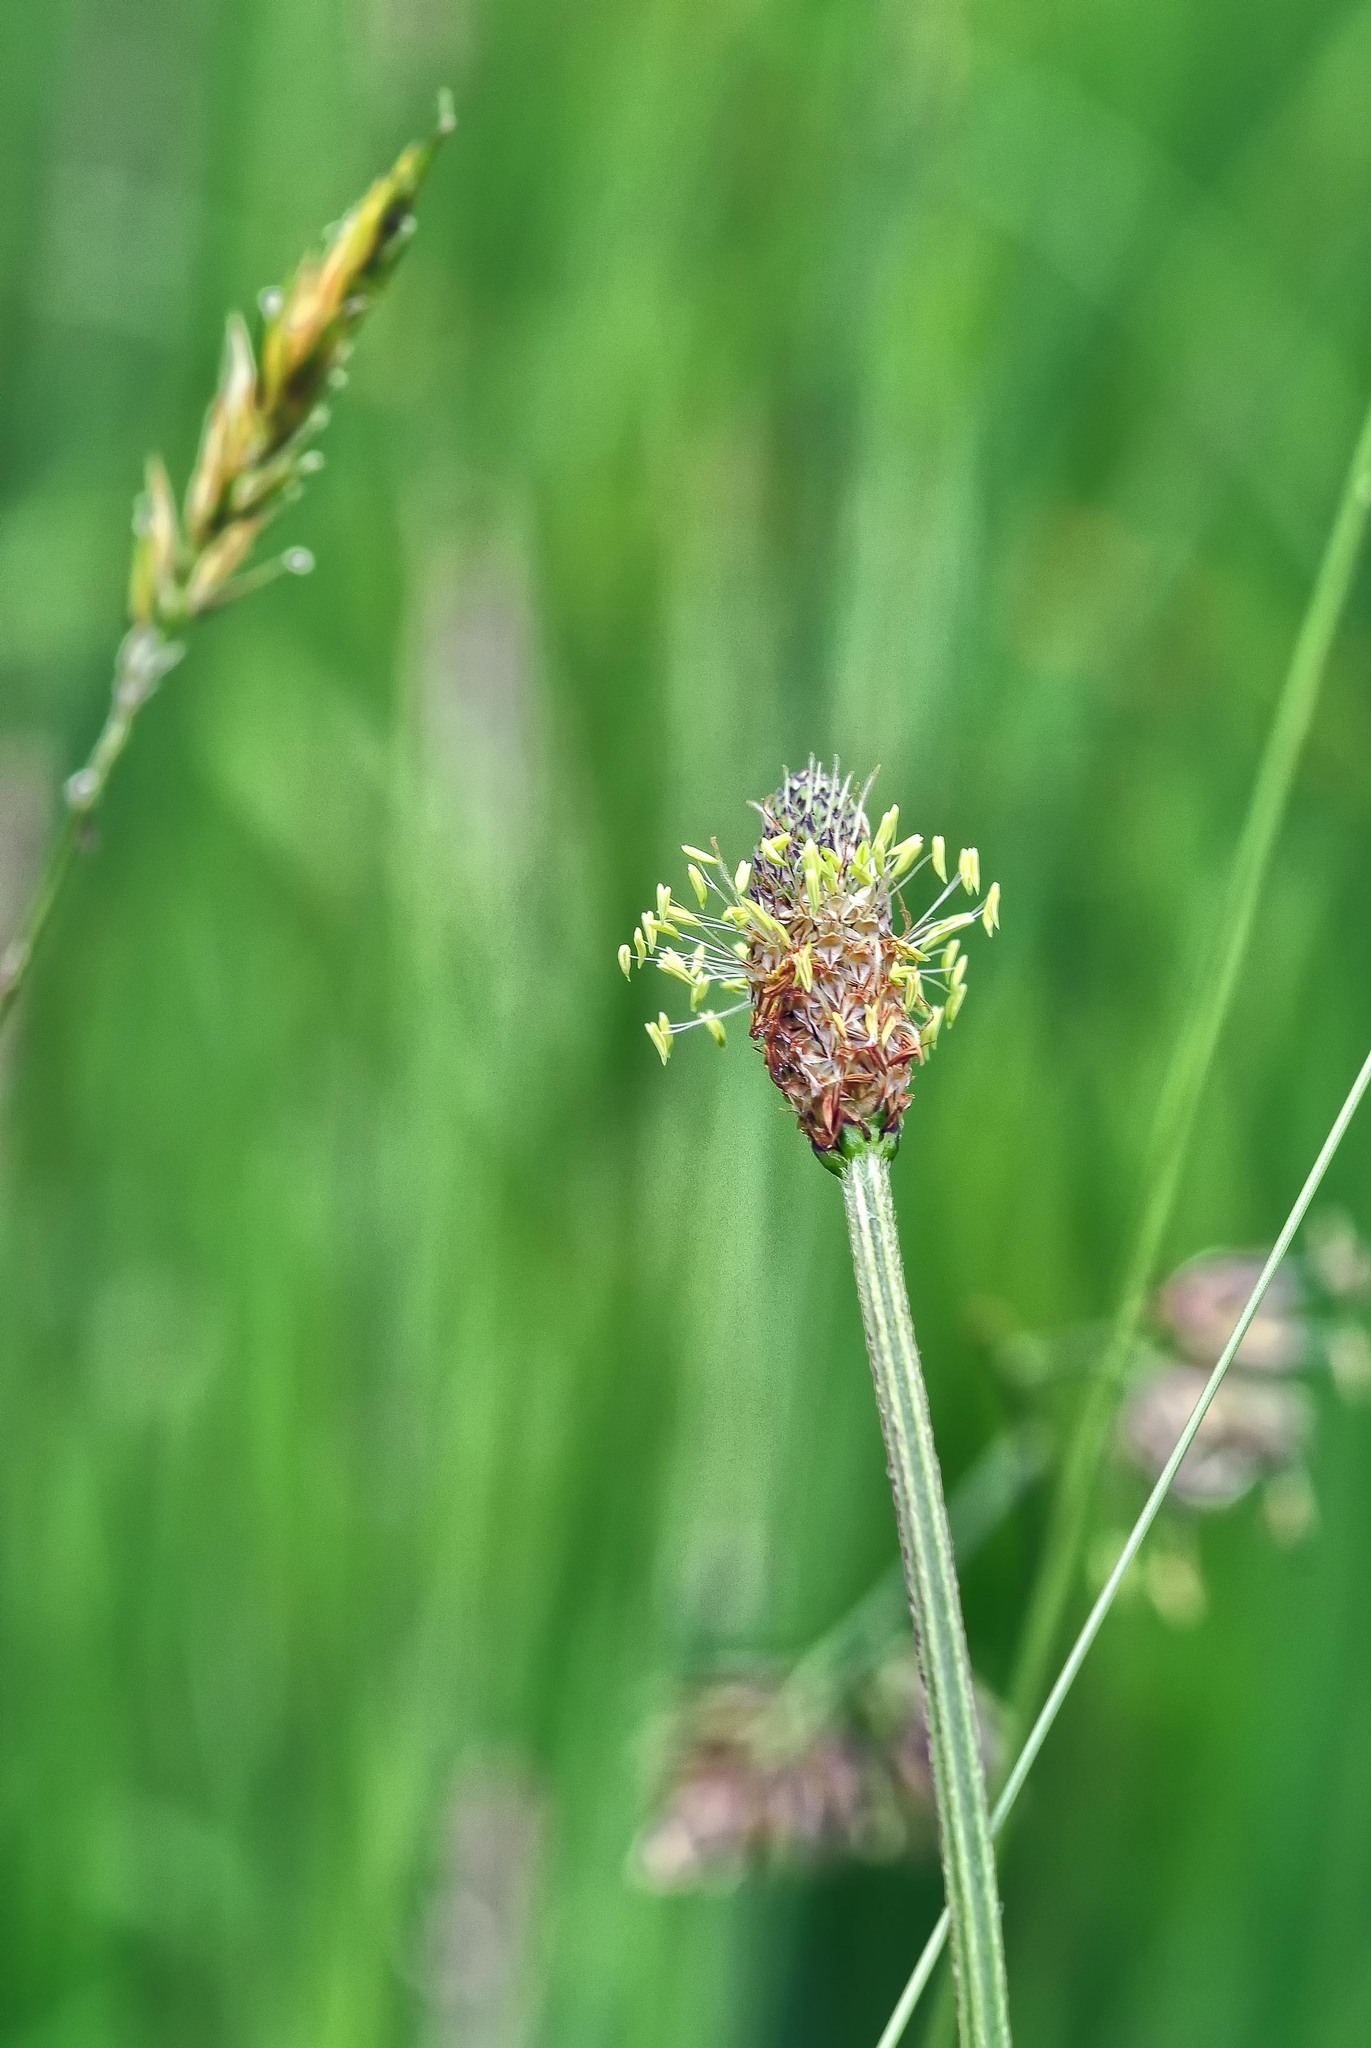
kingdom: Plantae
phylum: Tracheophyta
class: Magnoliopsida
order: Lamiales
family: Plantaginaceae
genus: Plantago
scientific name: Plantago lanceolata
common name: Ribwort plantain
